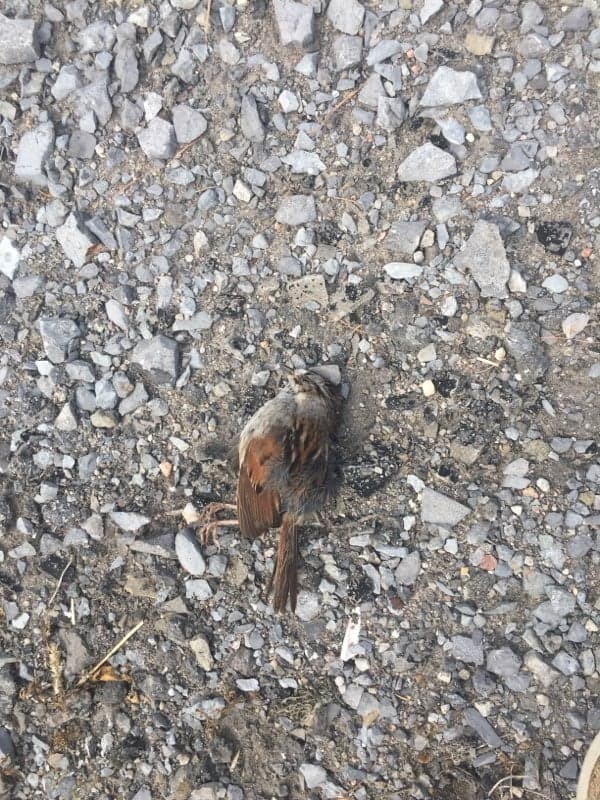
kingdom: Animalia
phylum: Chordata
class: Aves
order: Passeriformes
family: Passerellidae
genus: Melospiza
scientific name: Melospiza georgiana
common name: Swamp sparrow
